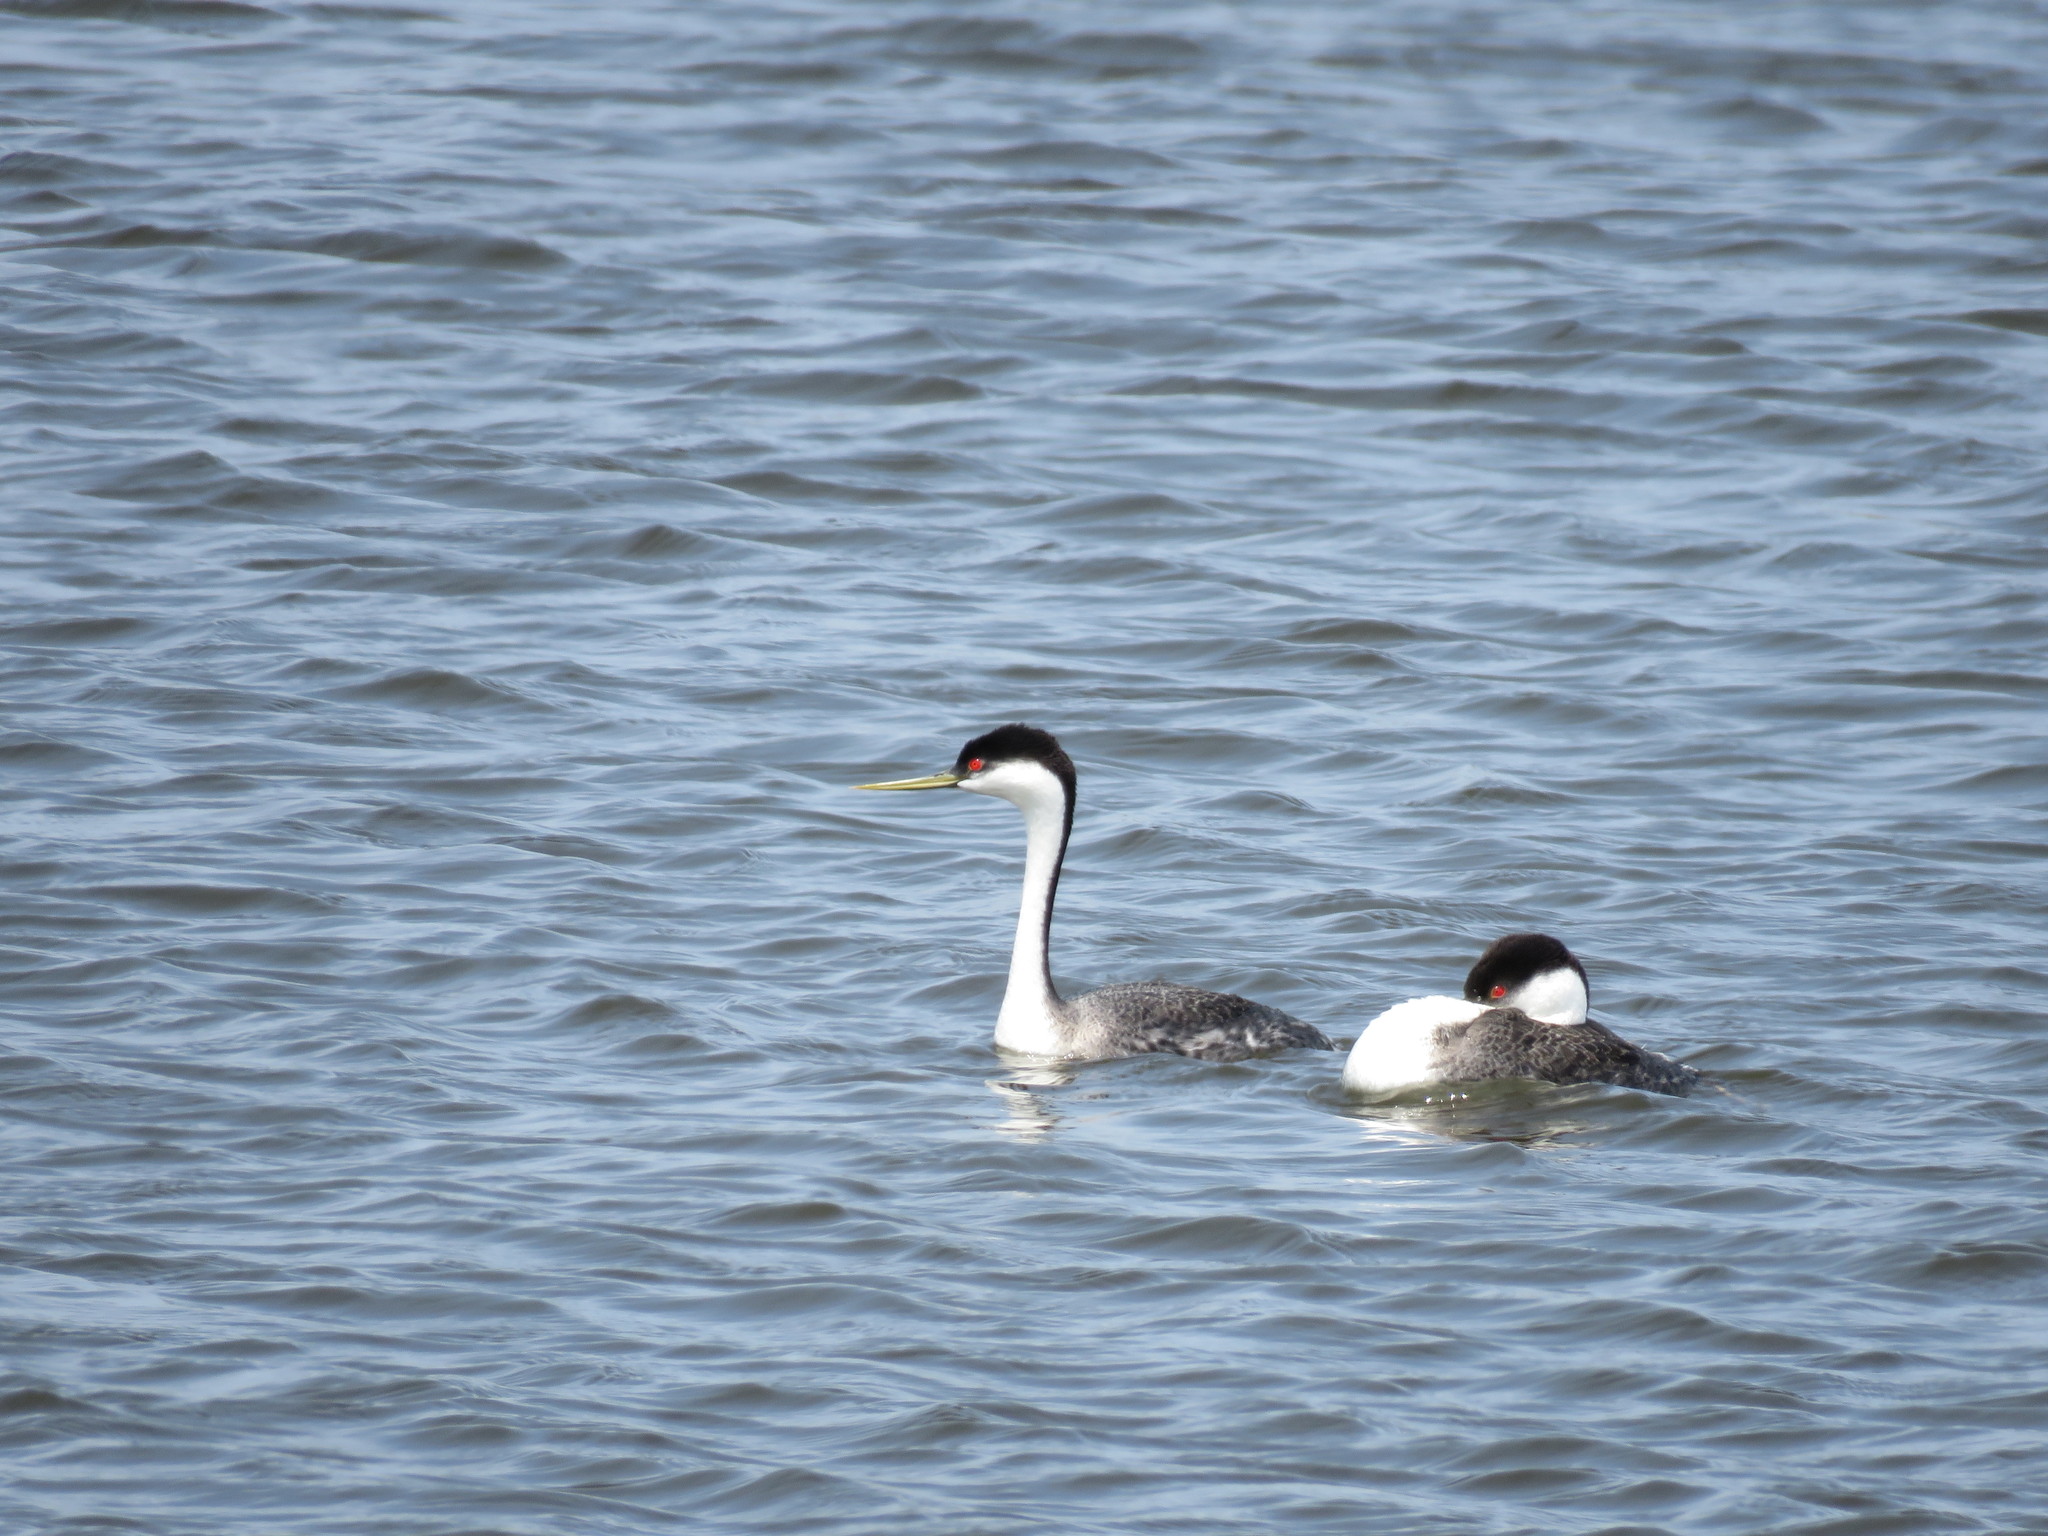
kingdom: Animalia
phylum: Chordata
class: Aves
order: Podicipediformes
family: Podicipedidae
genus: Aechmophorus
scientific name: Aechmophorus occidentalis
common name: Western grebe
